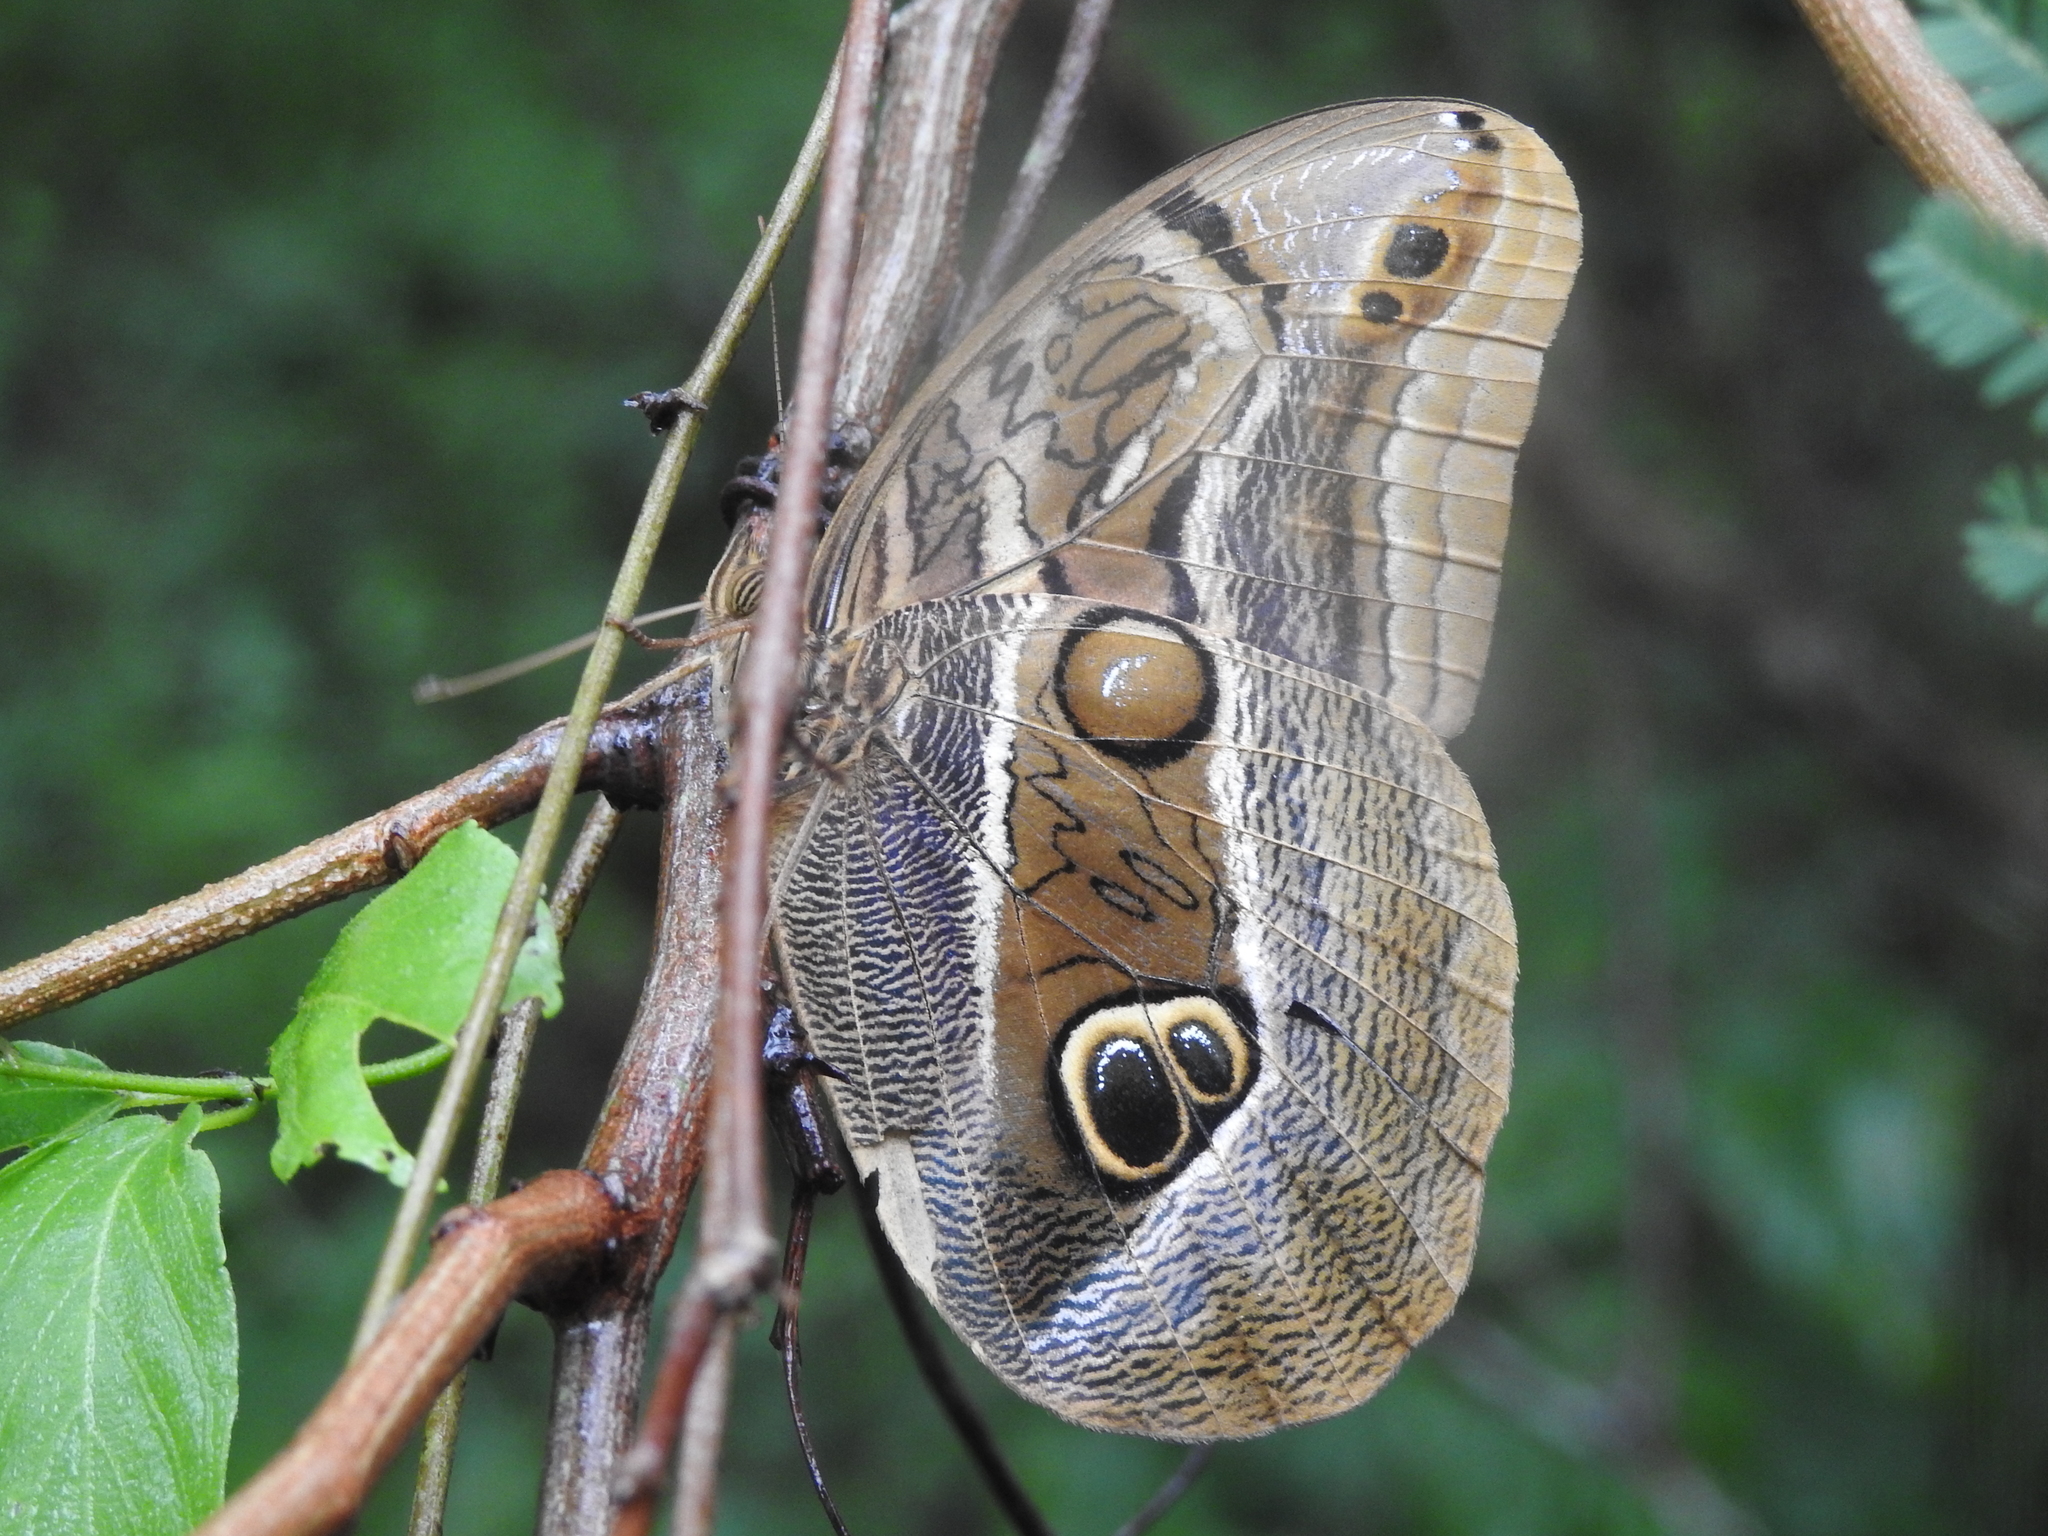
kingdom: Animalia
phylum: Arthropoda
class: Insecta
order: Lepidoptera
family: Nymphalidae
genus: Eryphanis
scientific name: Eryphanis aesacus
